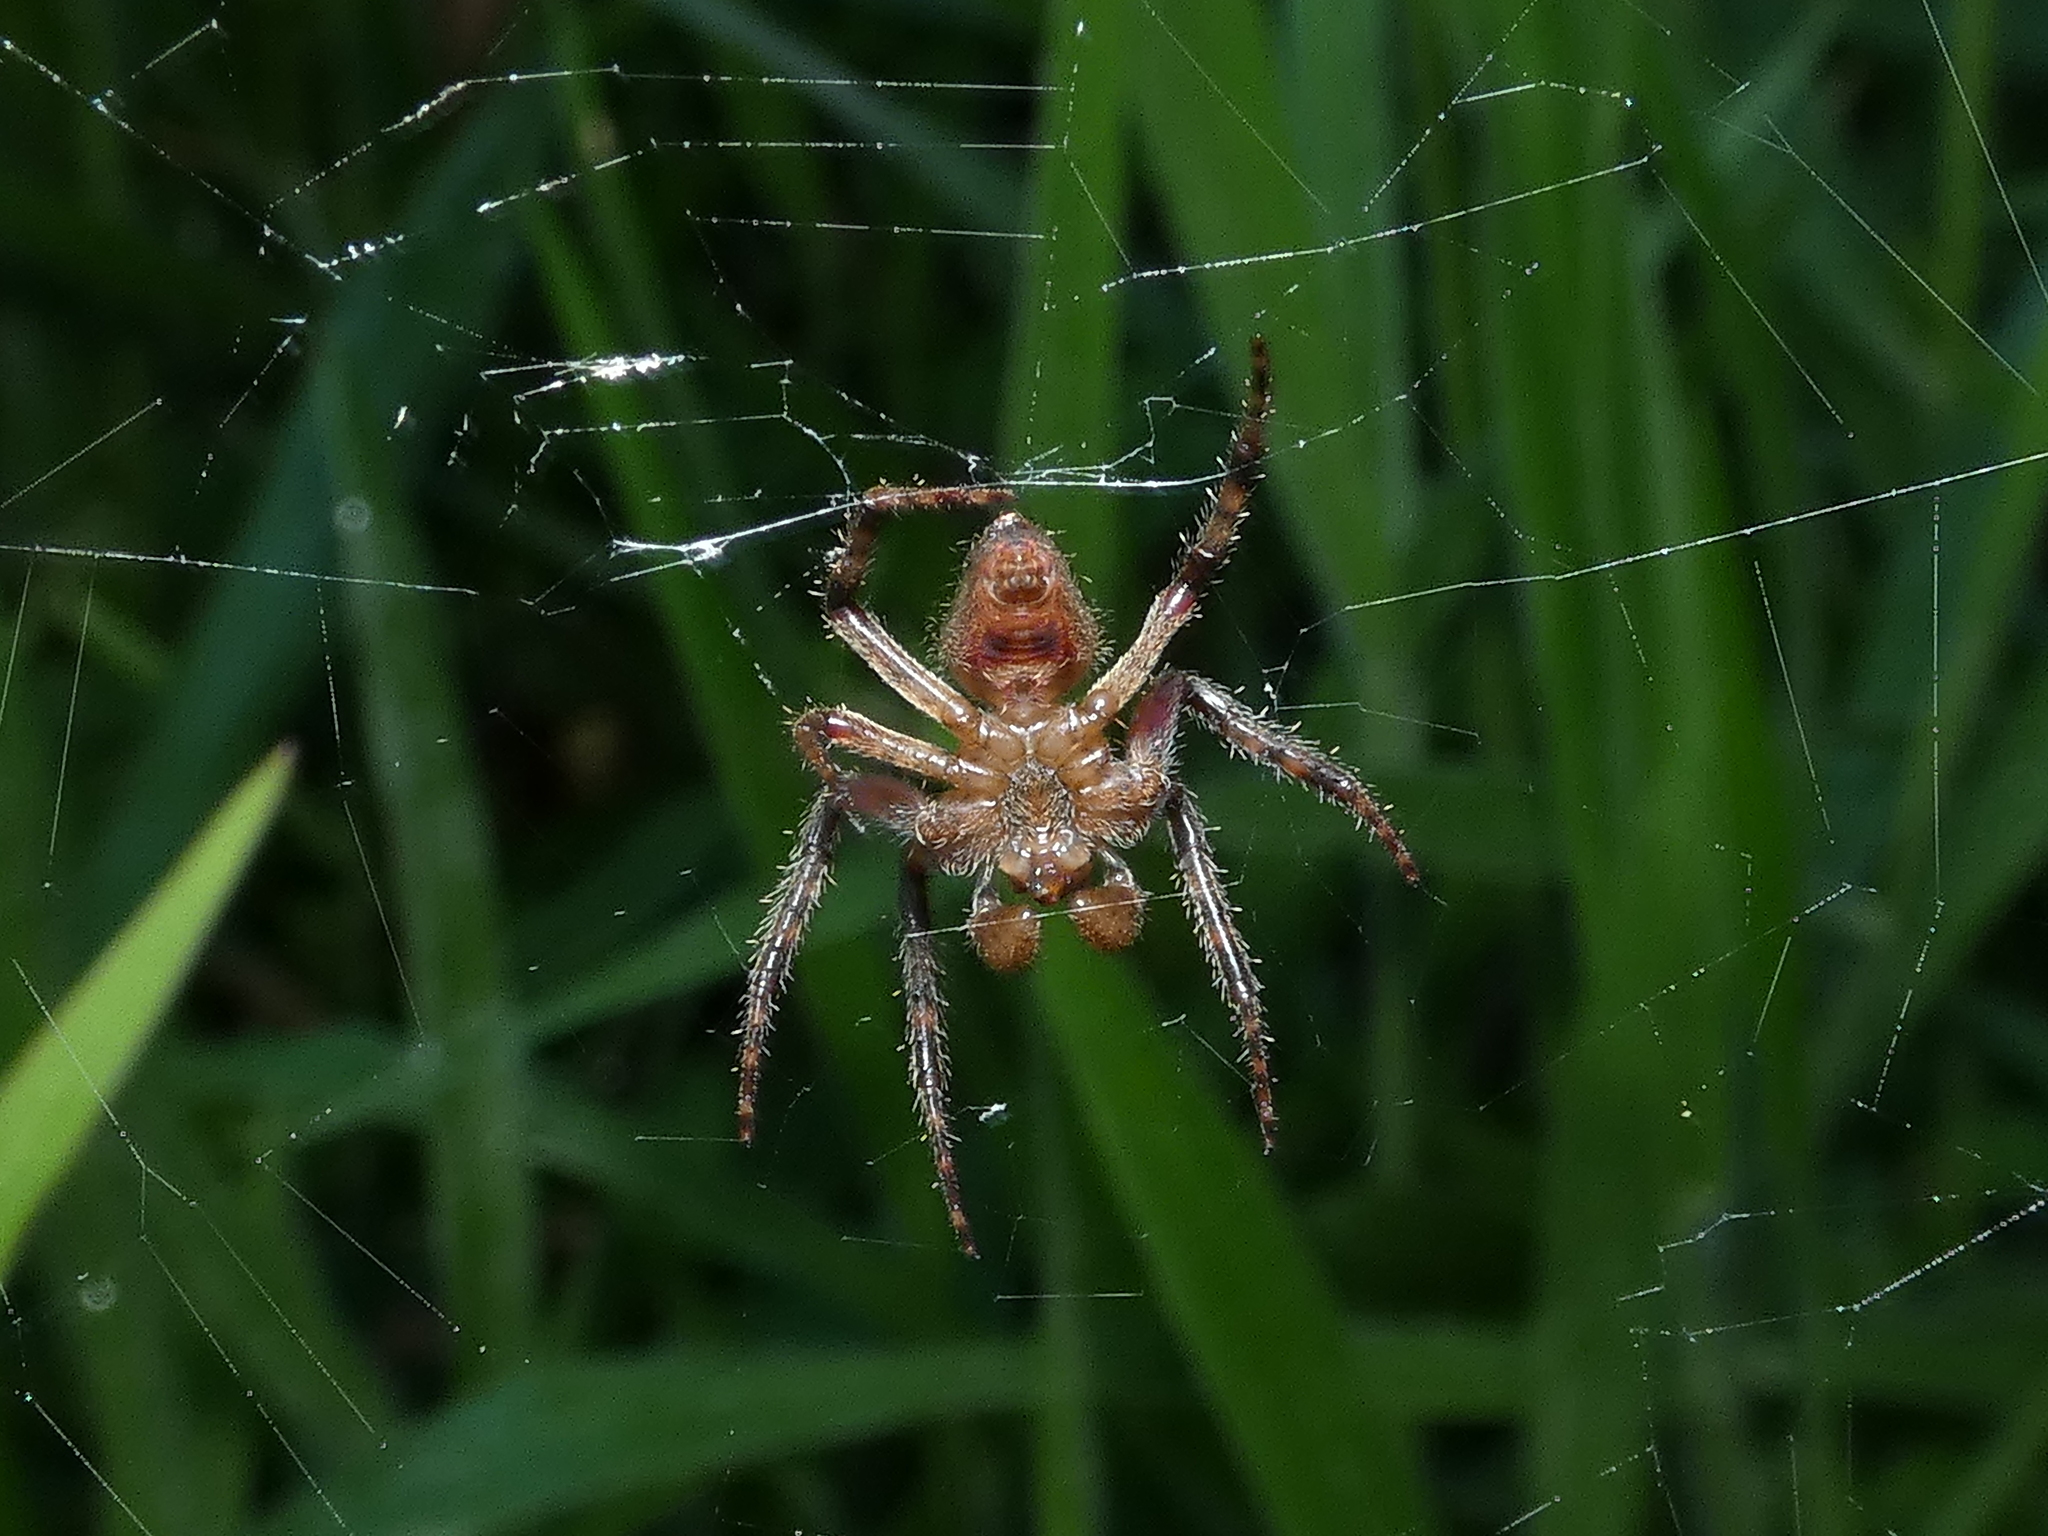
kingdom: Animalia
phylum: Arthropoda
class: Arachnida
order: Araneae
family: Araneidae
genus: Eriophora
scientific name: Eriophora edax
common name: Orb weavers
